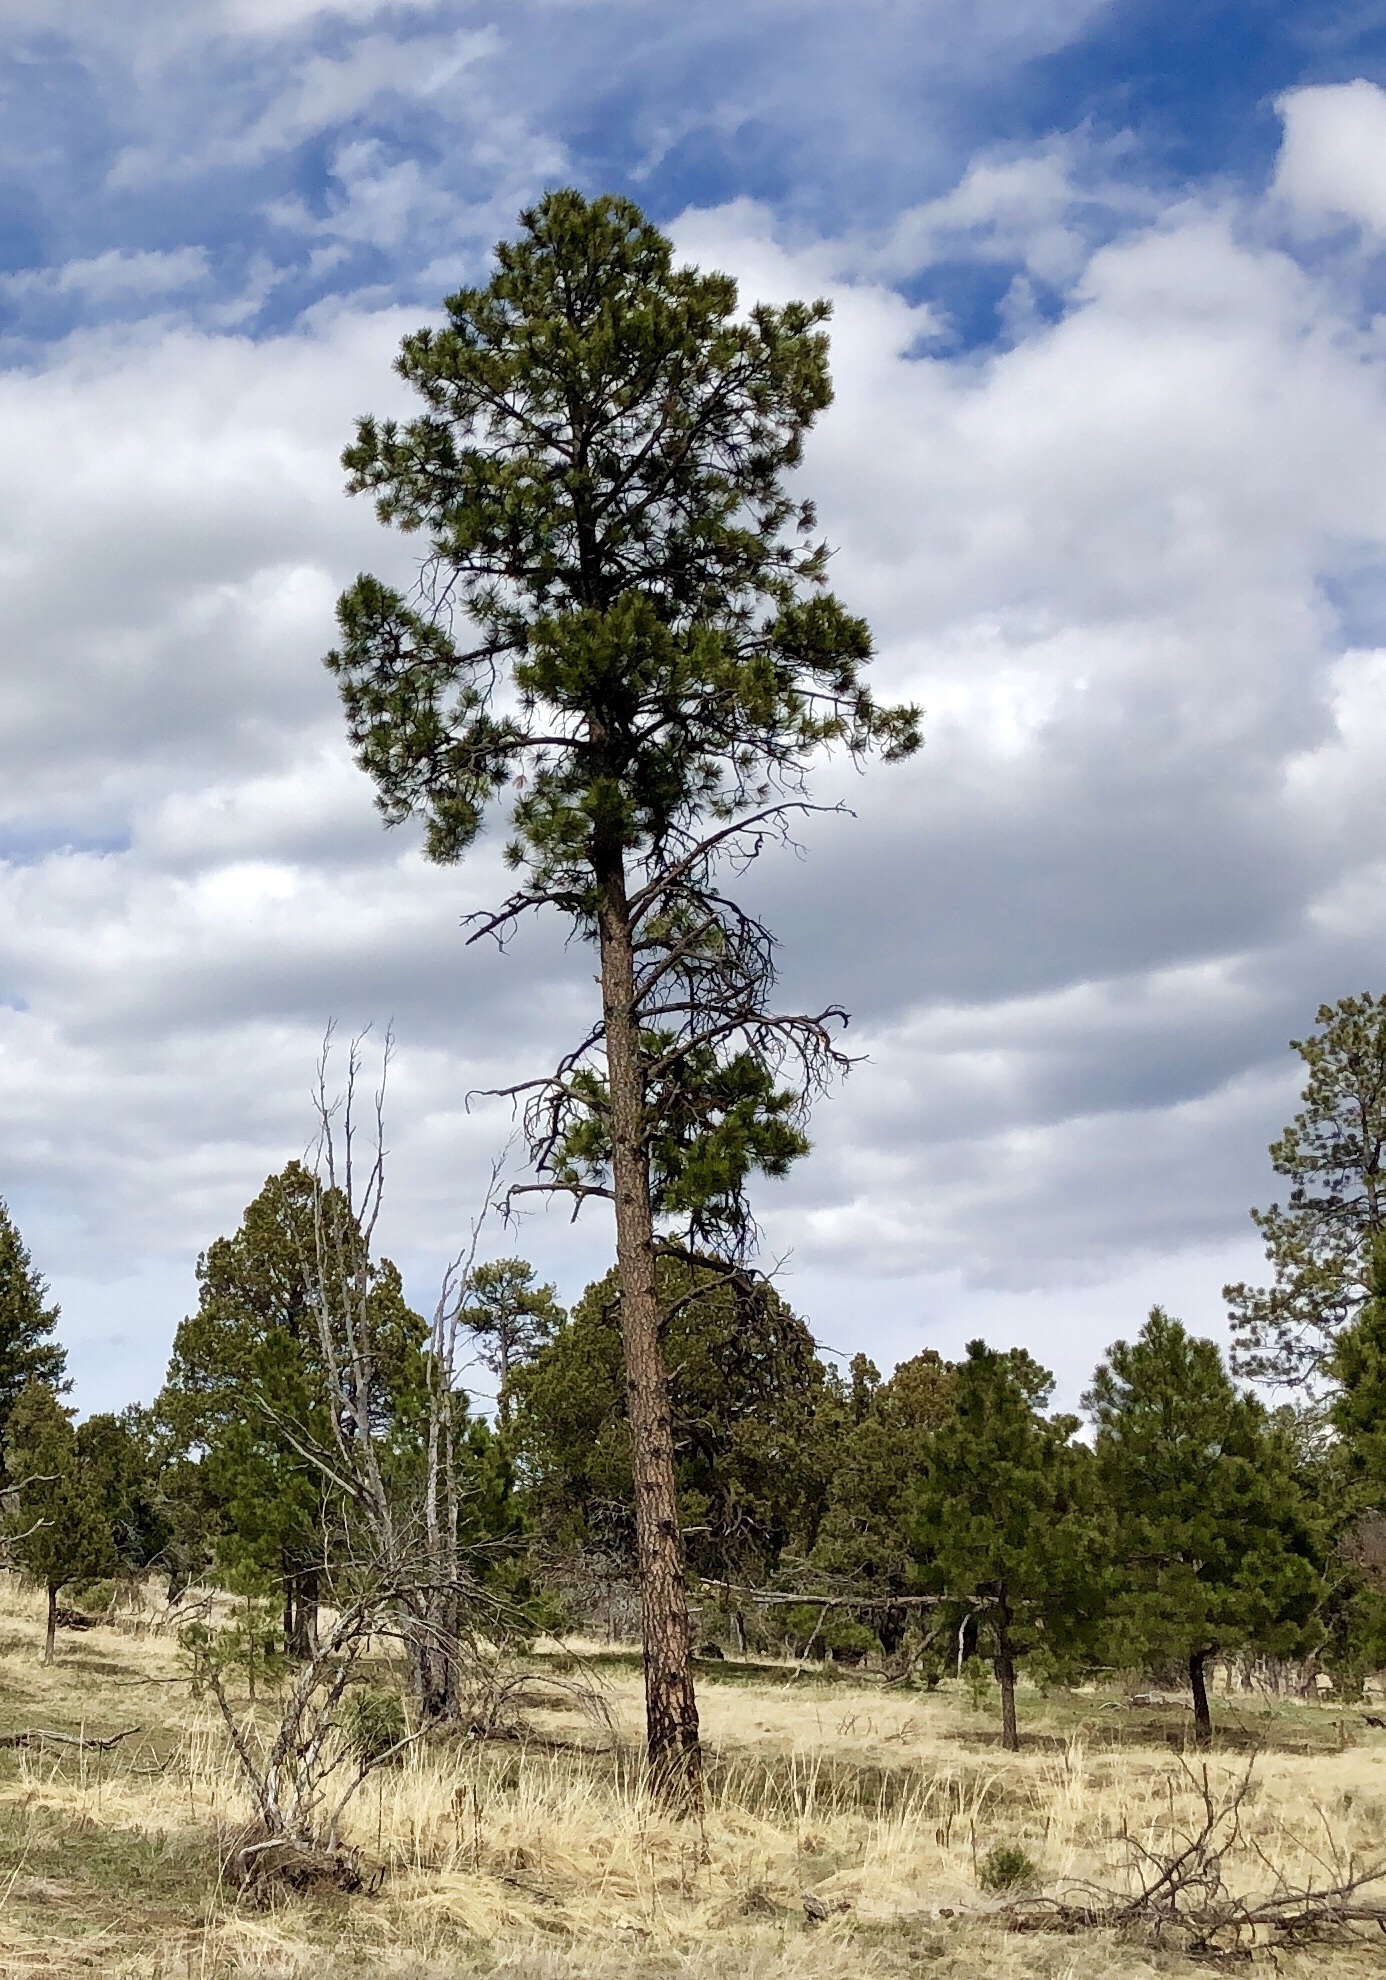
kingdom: Plantae
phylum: Tracheophyta
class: Pinopsida
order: Pinales
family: Pinaceae
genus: Pinus
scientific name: Pinus ponderosa
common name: Western yellow-pine
